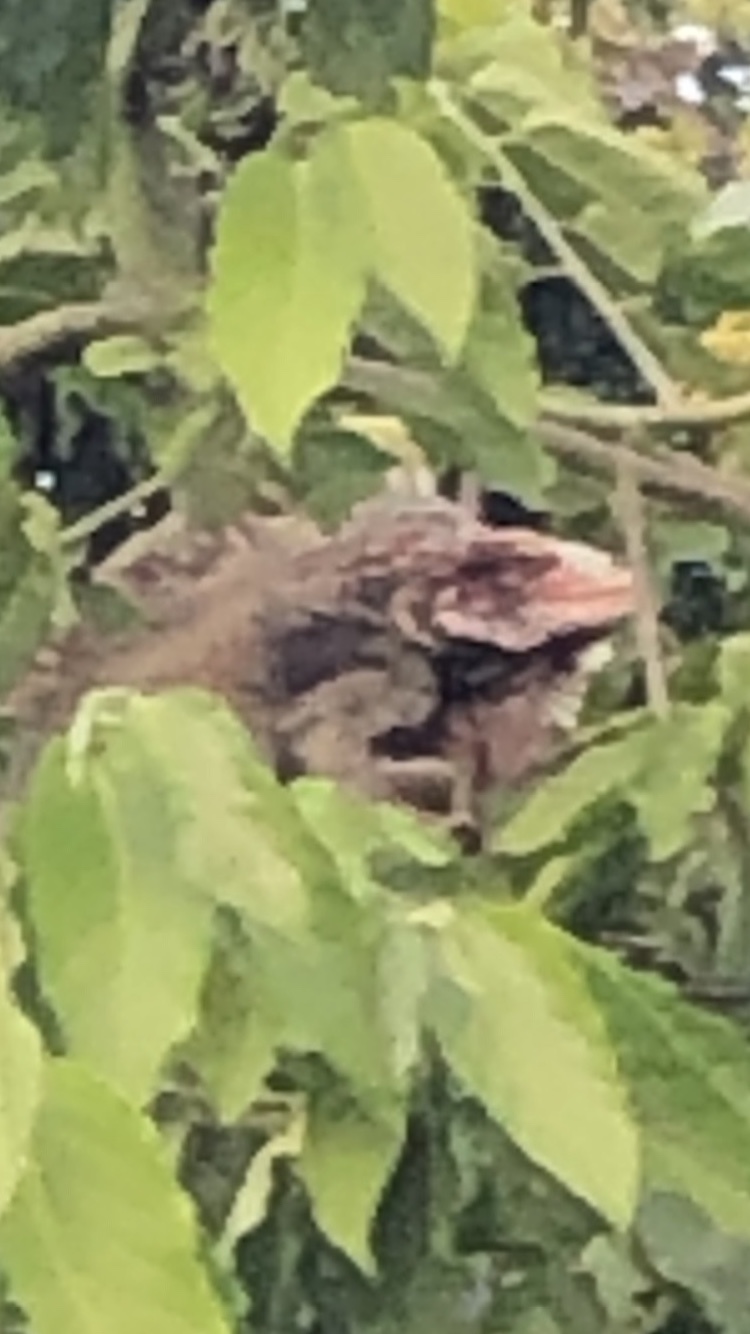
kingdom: Animalia
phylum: Chordata
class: Squamata
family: Iguanidae
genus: Iguana
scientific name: Iguana iguana
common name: Green iguana
